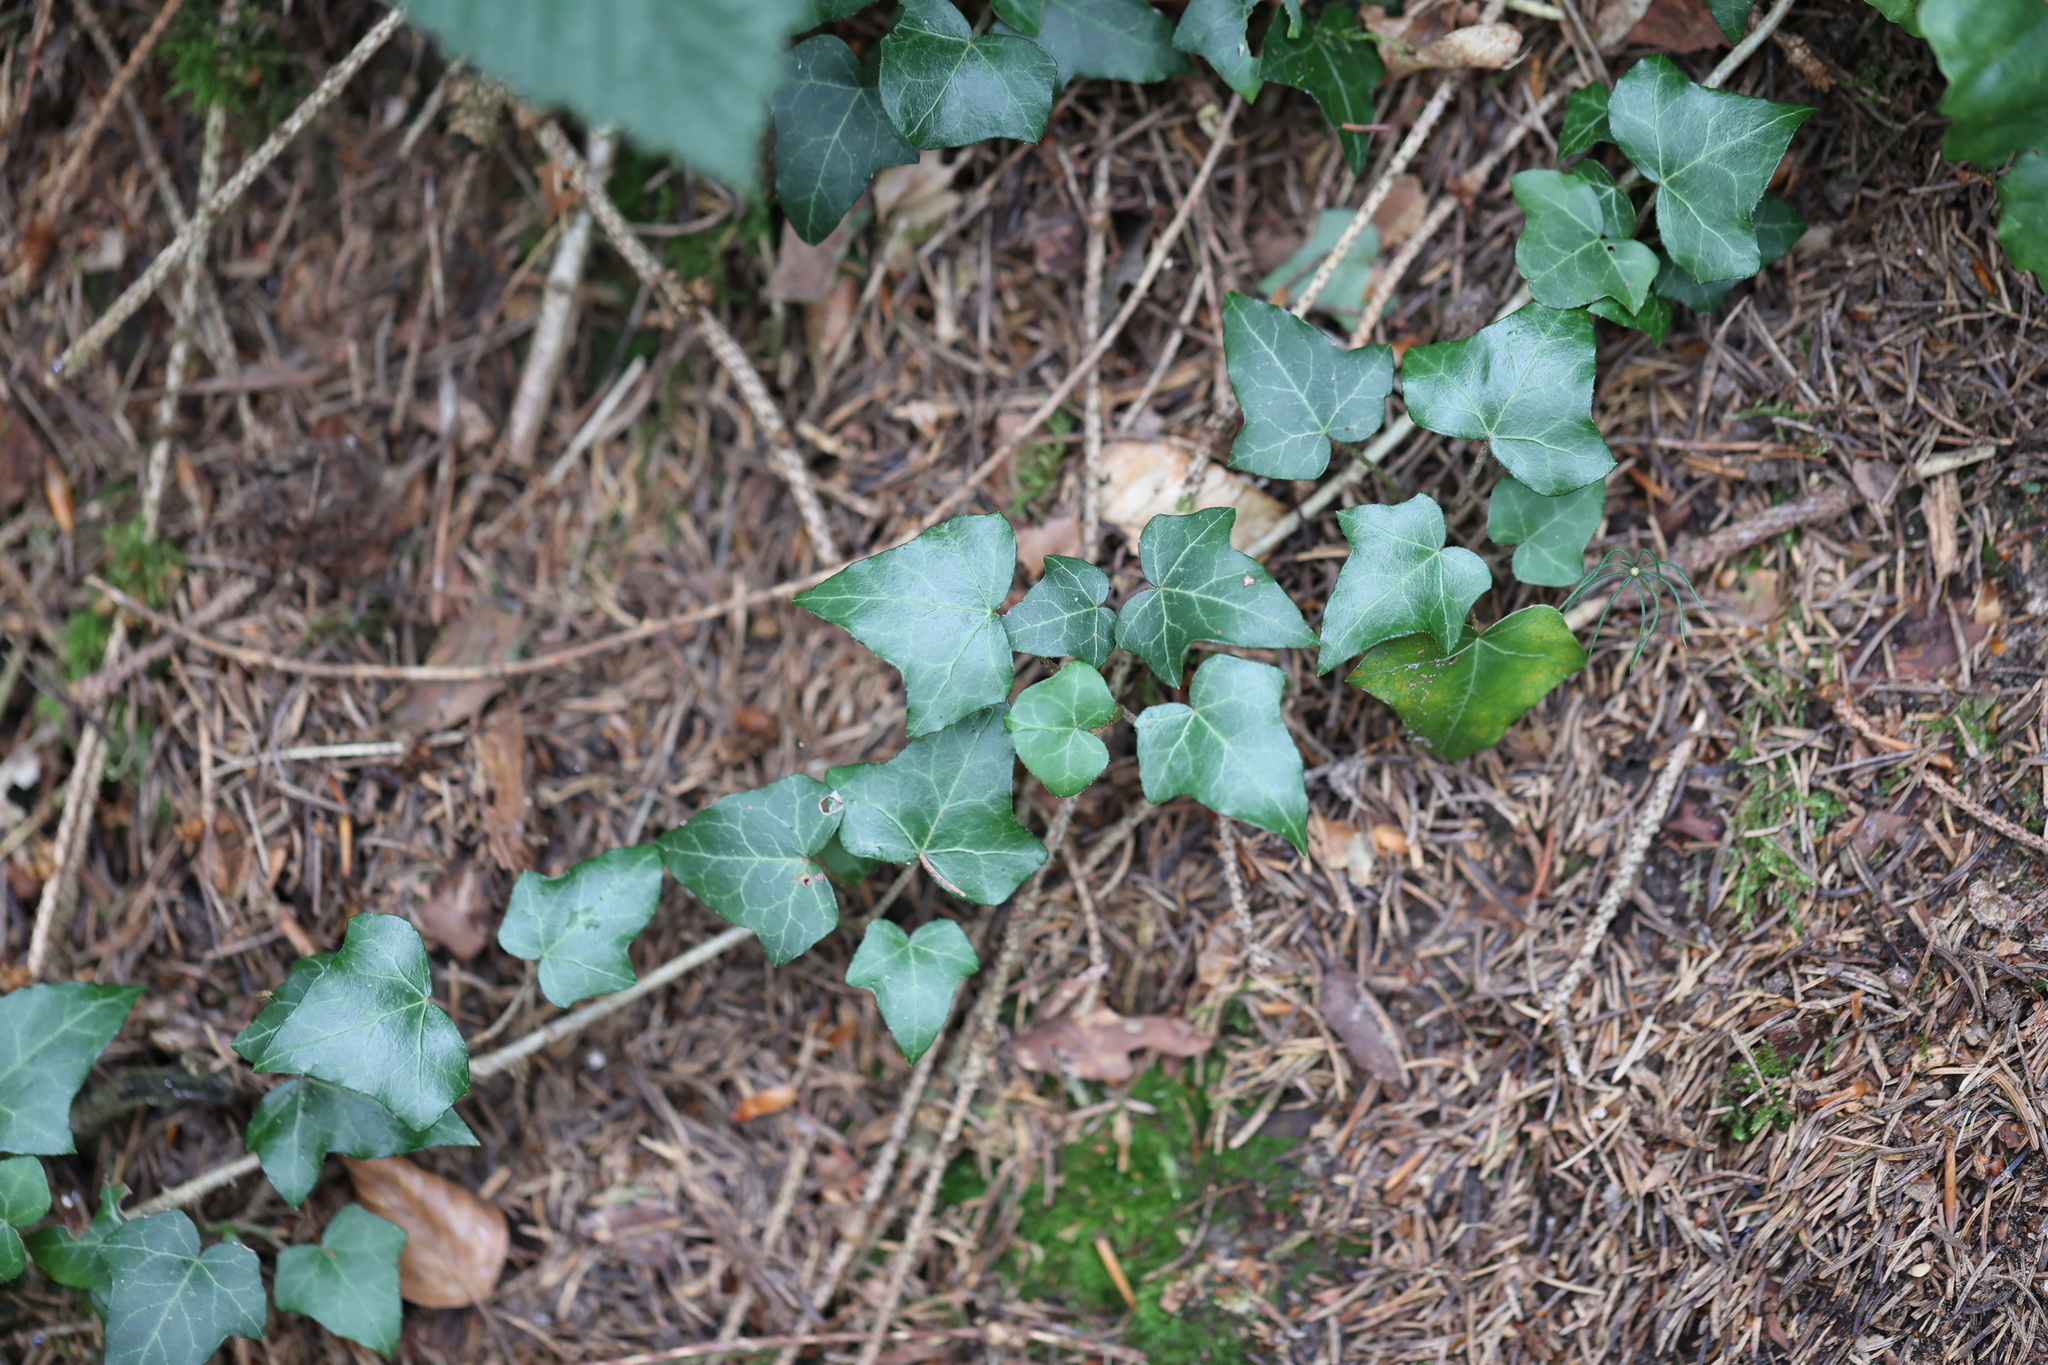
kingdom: Plantae
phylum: Tracheophyta
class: Magnoliopsida
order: Apiales
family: Araliaceae
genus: Hedera
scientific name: Hedera helix
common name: Ivy
